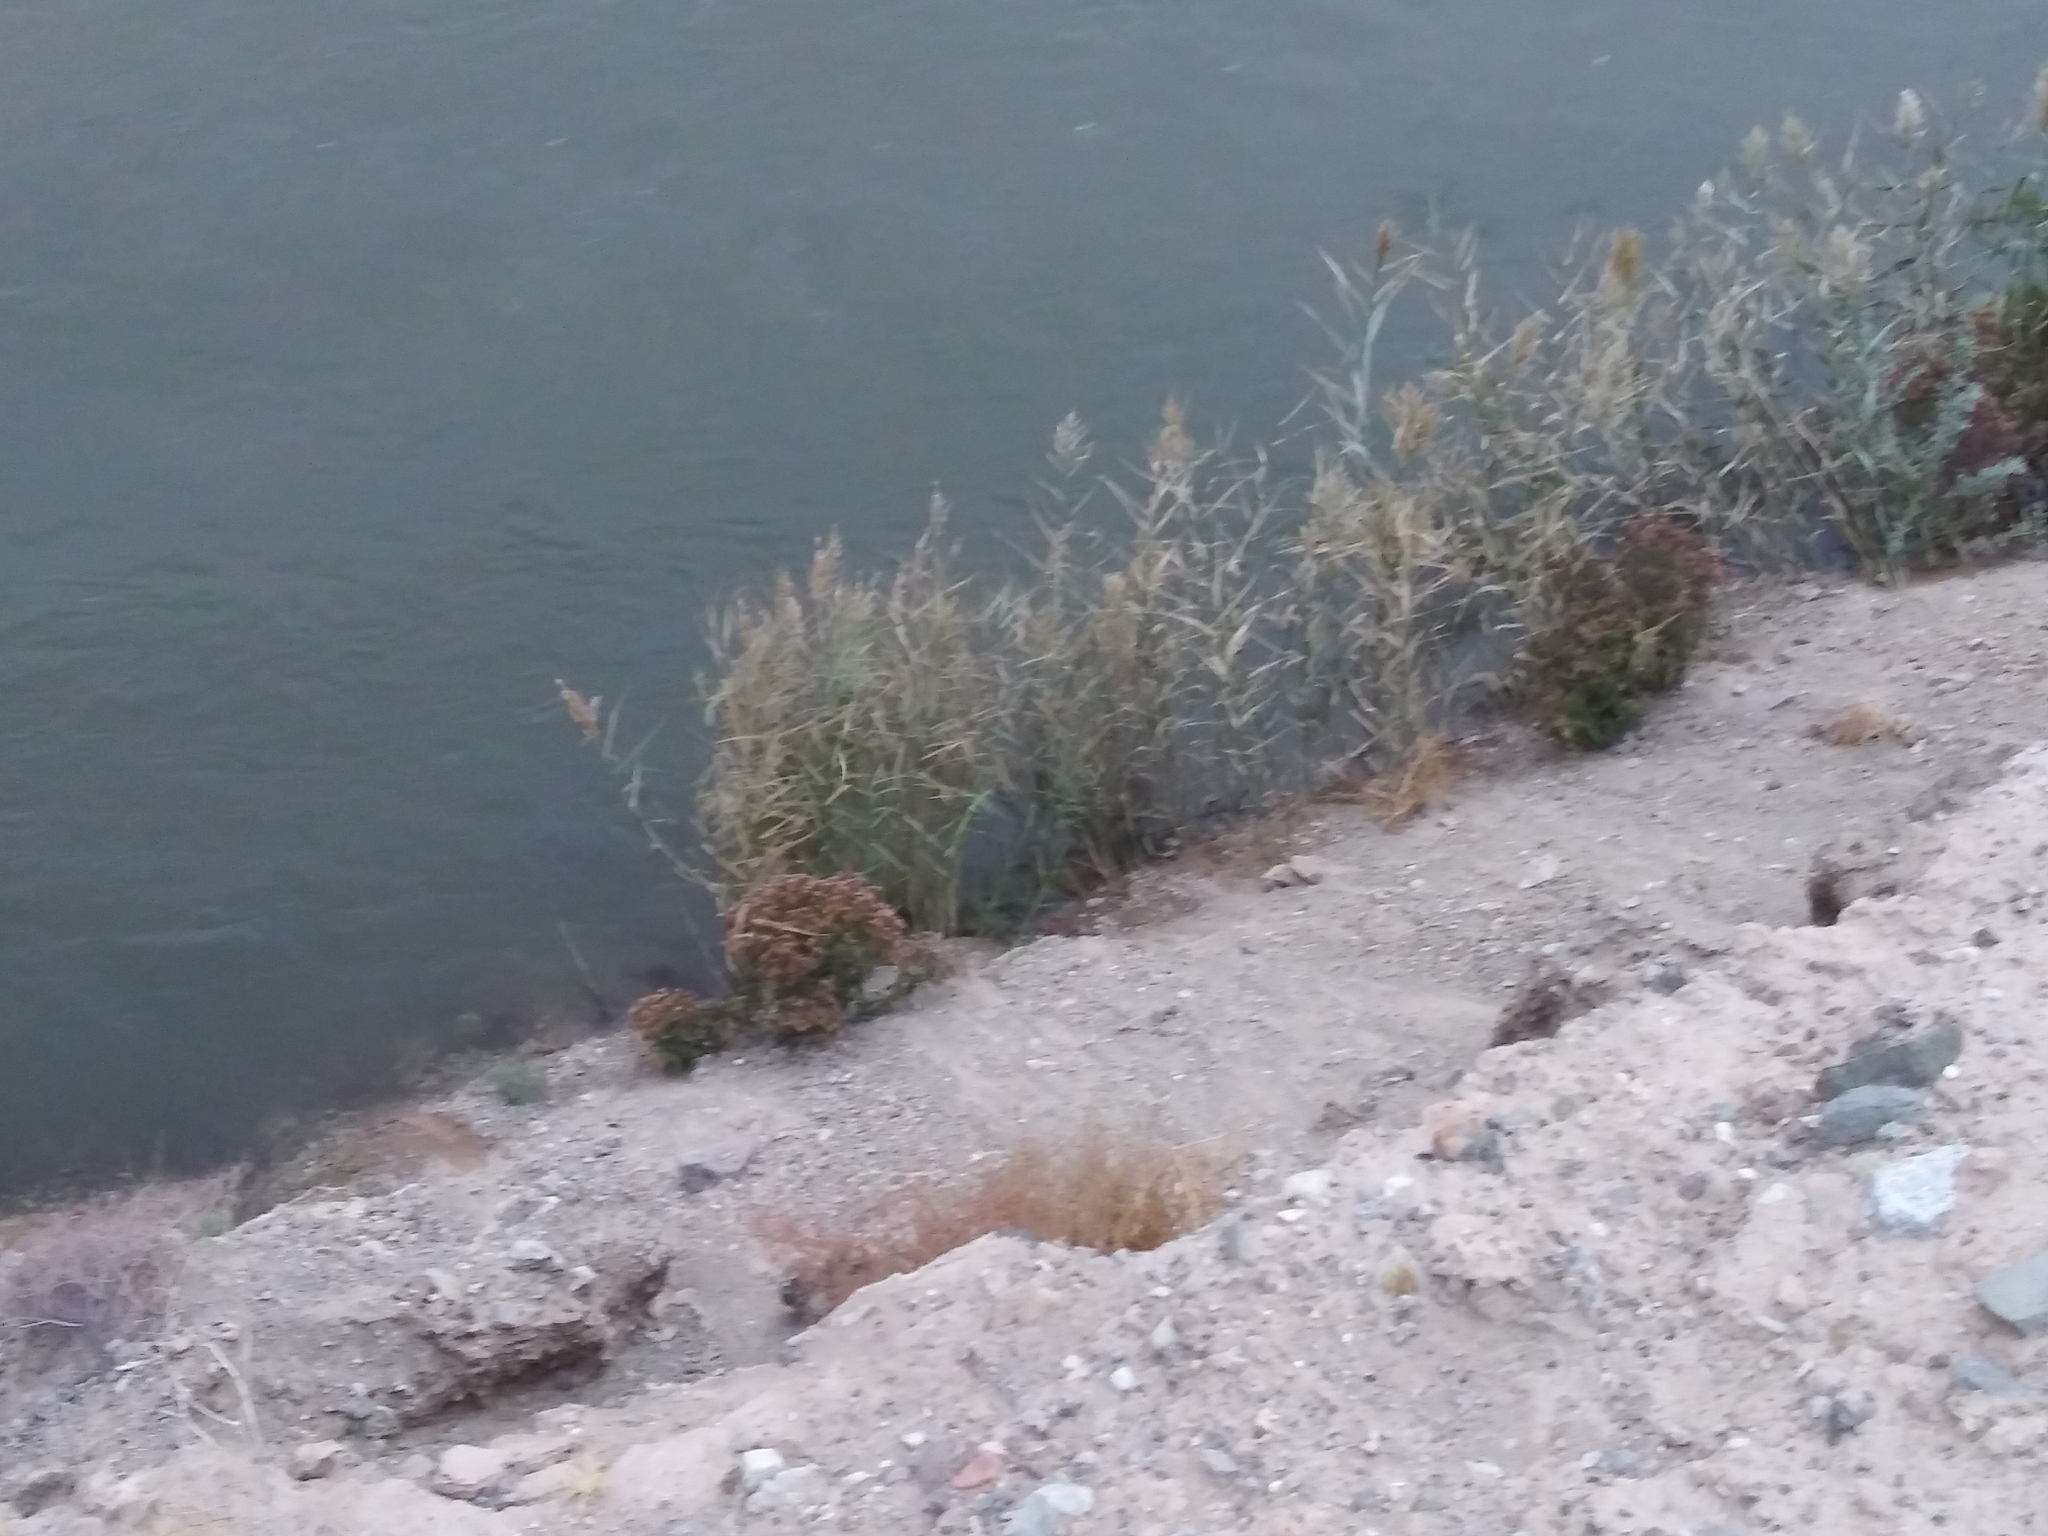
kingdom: Plantae
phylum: Tracheophyta
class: Liliopsida
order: Poales
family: Poaceae
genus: Phragmites
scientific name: Phragmites australis
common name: Common reed
